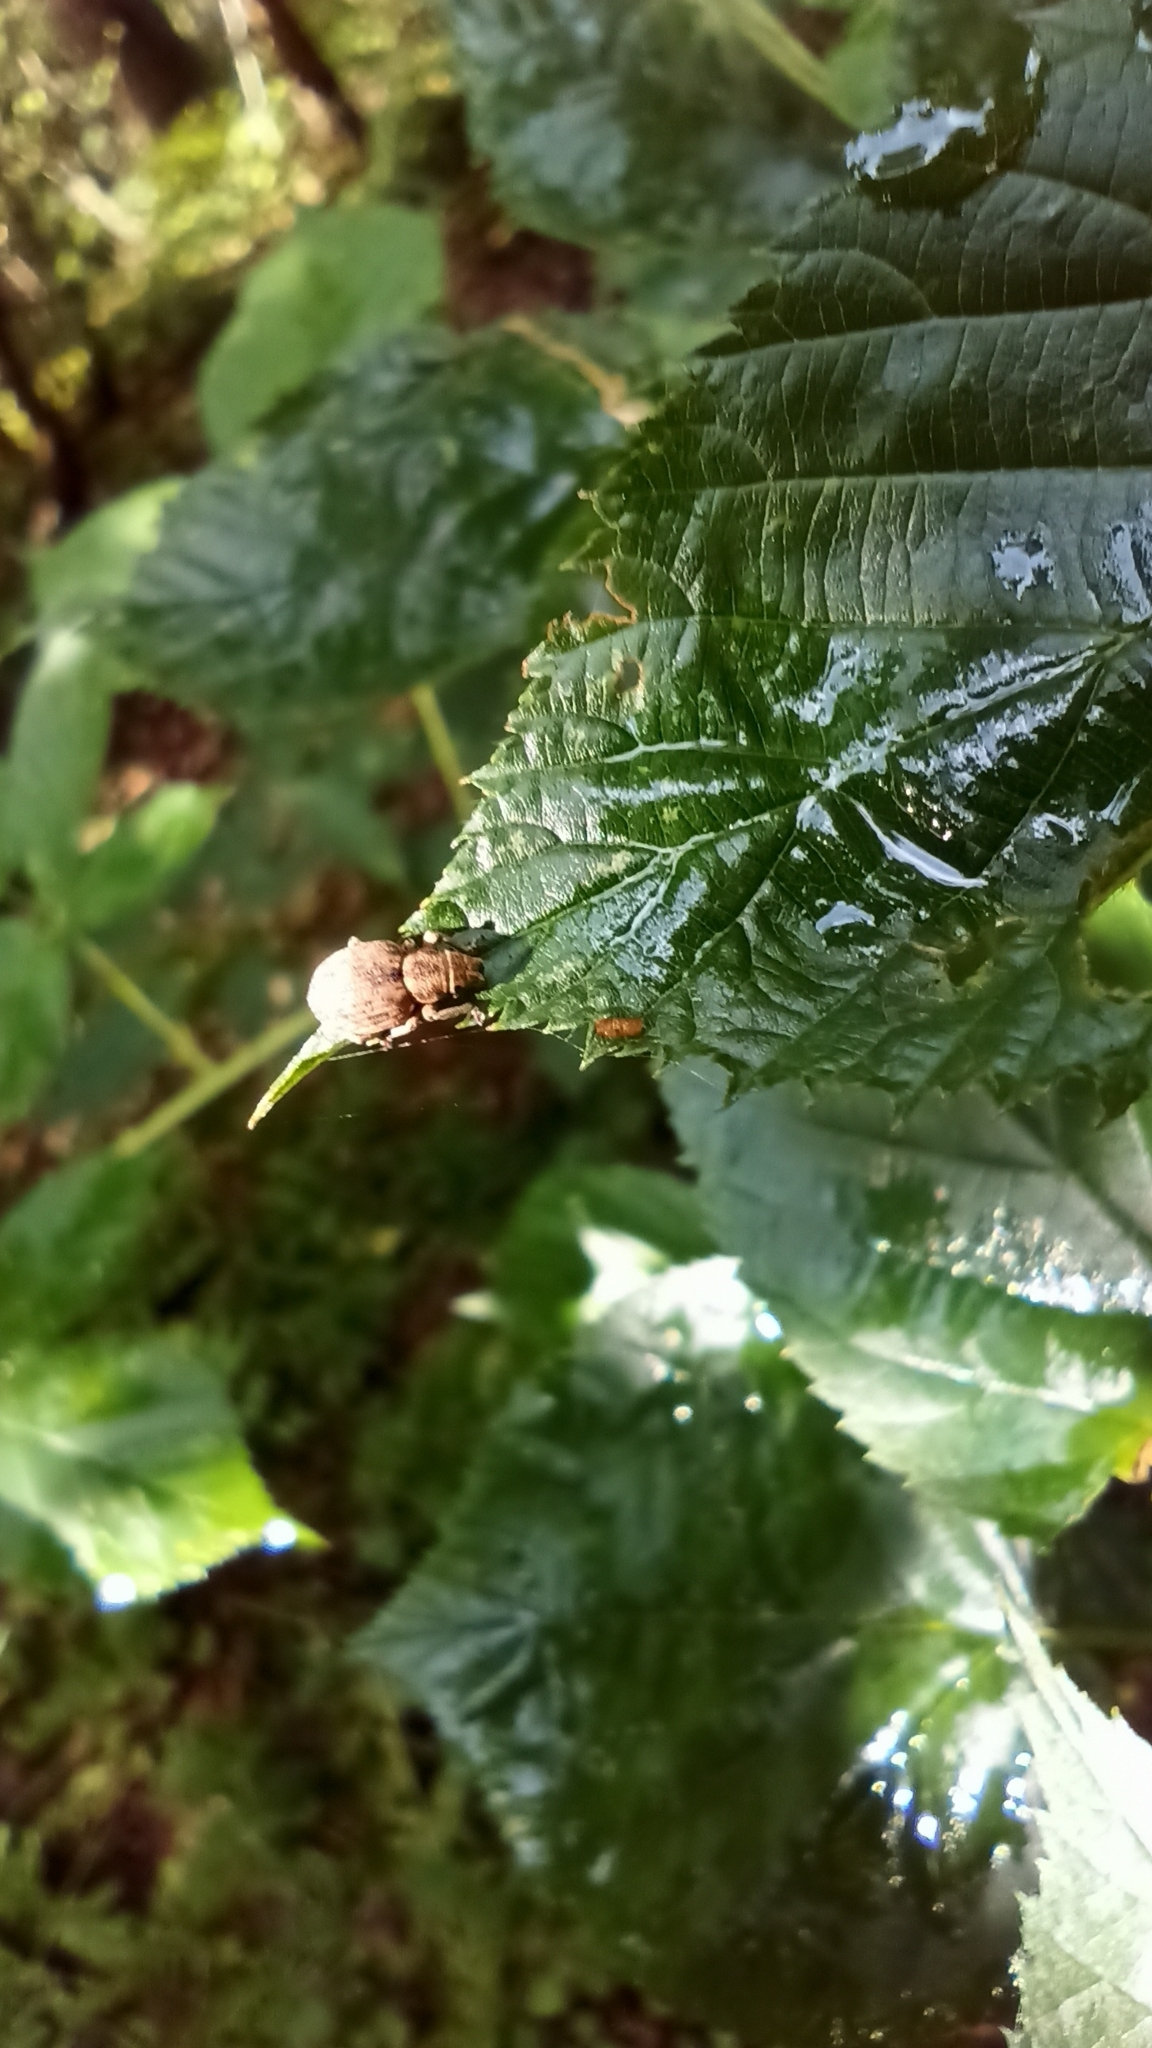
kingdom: Animalia
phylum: Arthropoda
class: Insecta
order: Coleoptera
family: Curculionidae
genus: Strophosoma
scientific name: Strophosoma capitatum
